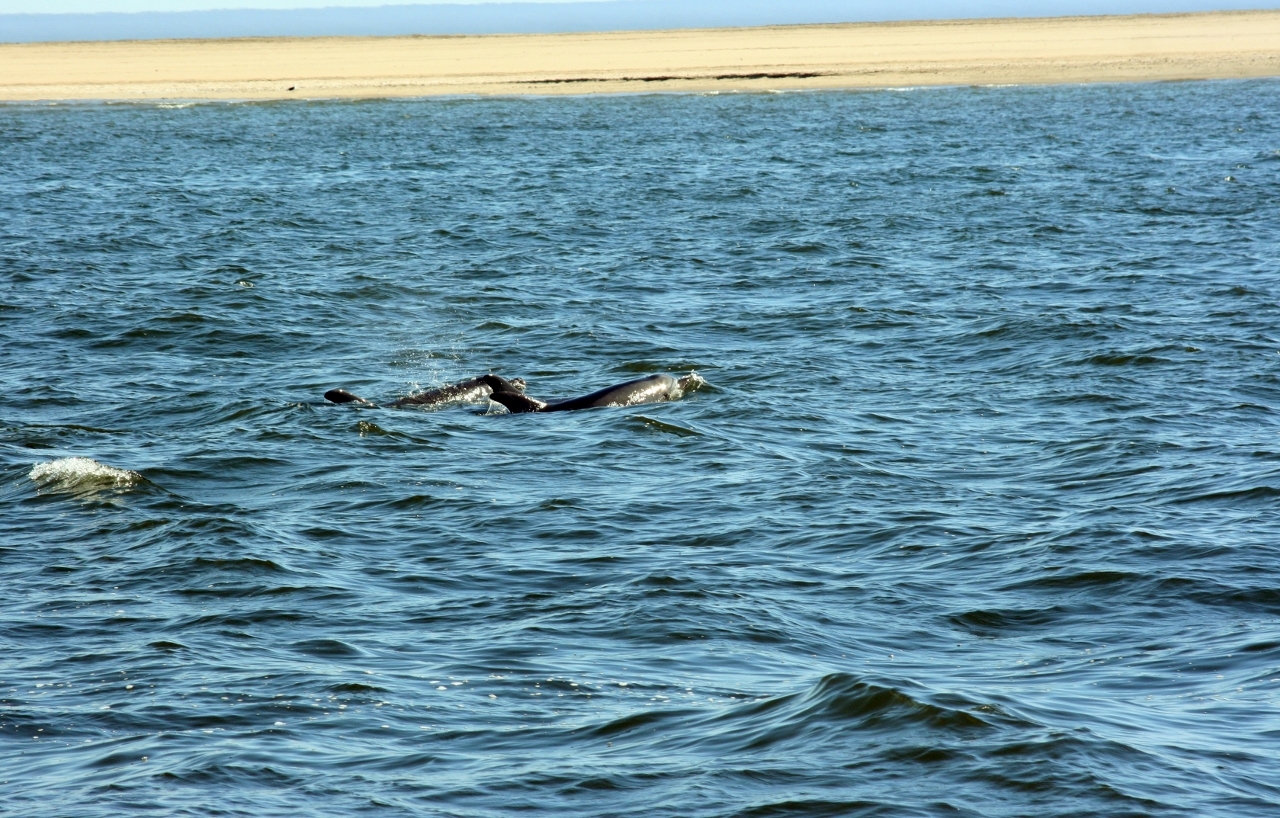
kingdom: Animalia
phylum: Chordata
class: Mammalia
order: Cetacea
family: Delphinidae
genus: Tursiops
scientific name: Tursiops truncatus
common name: Bottlenose dolphin
